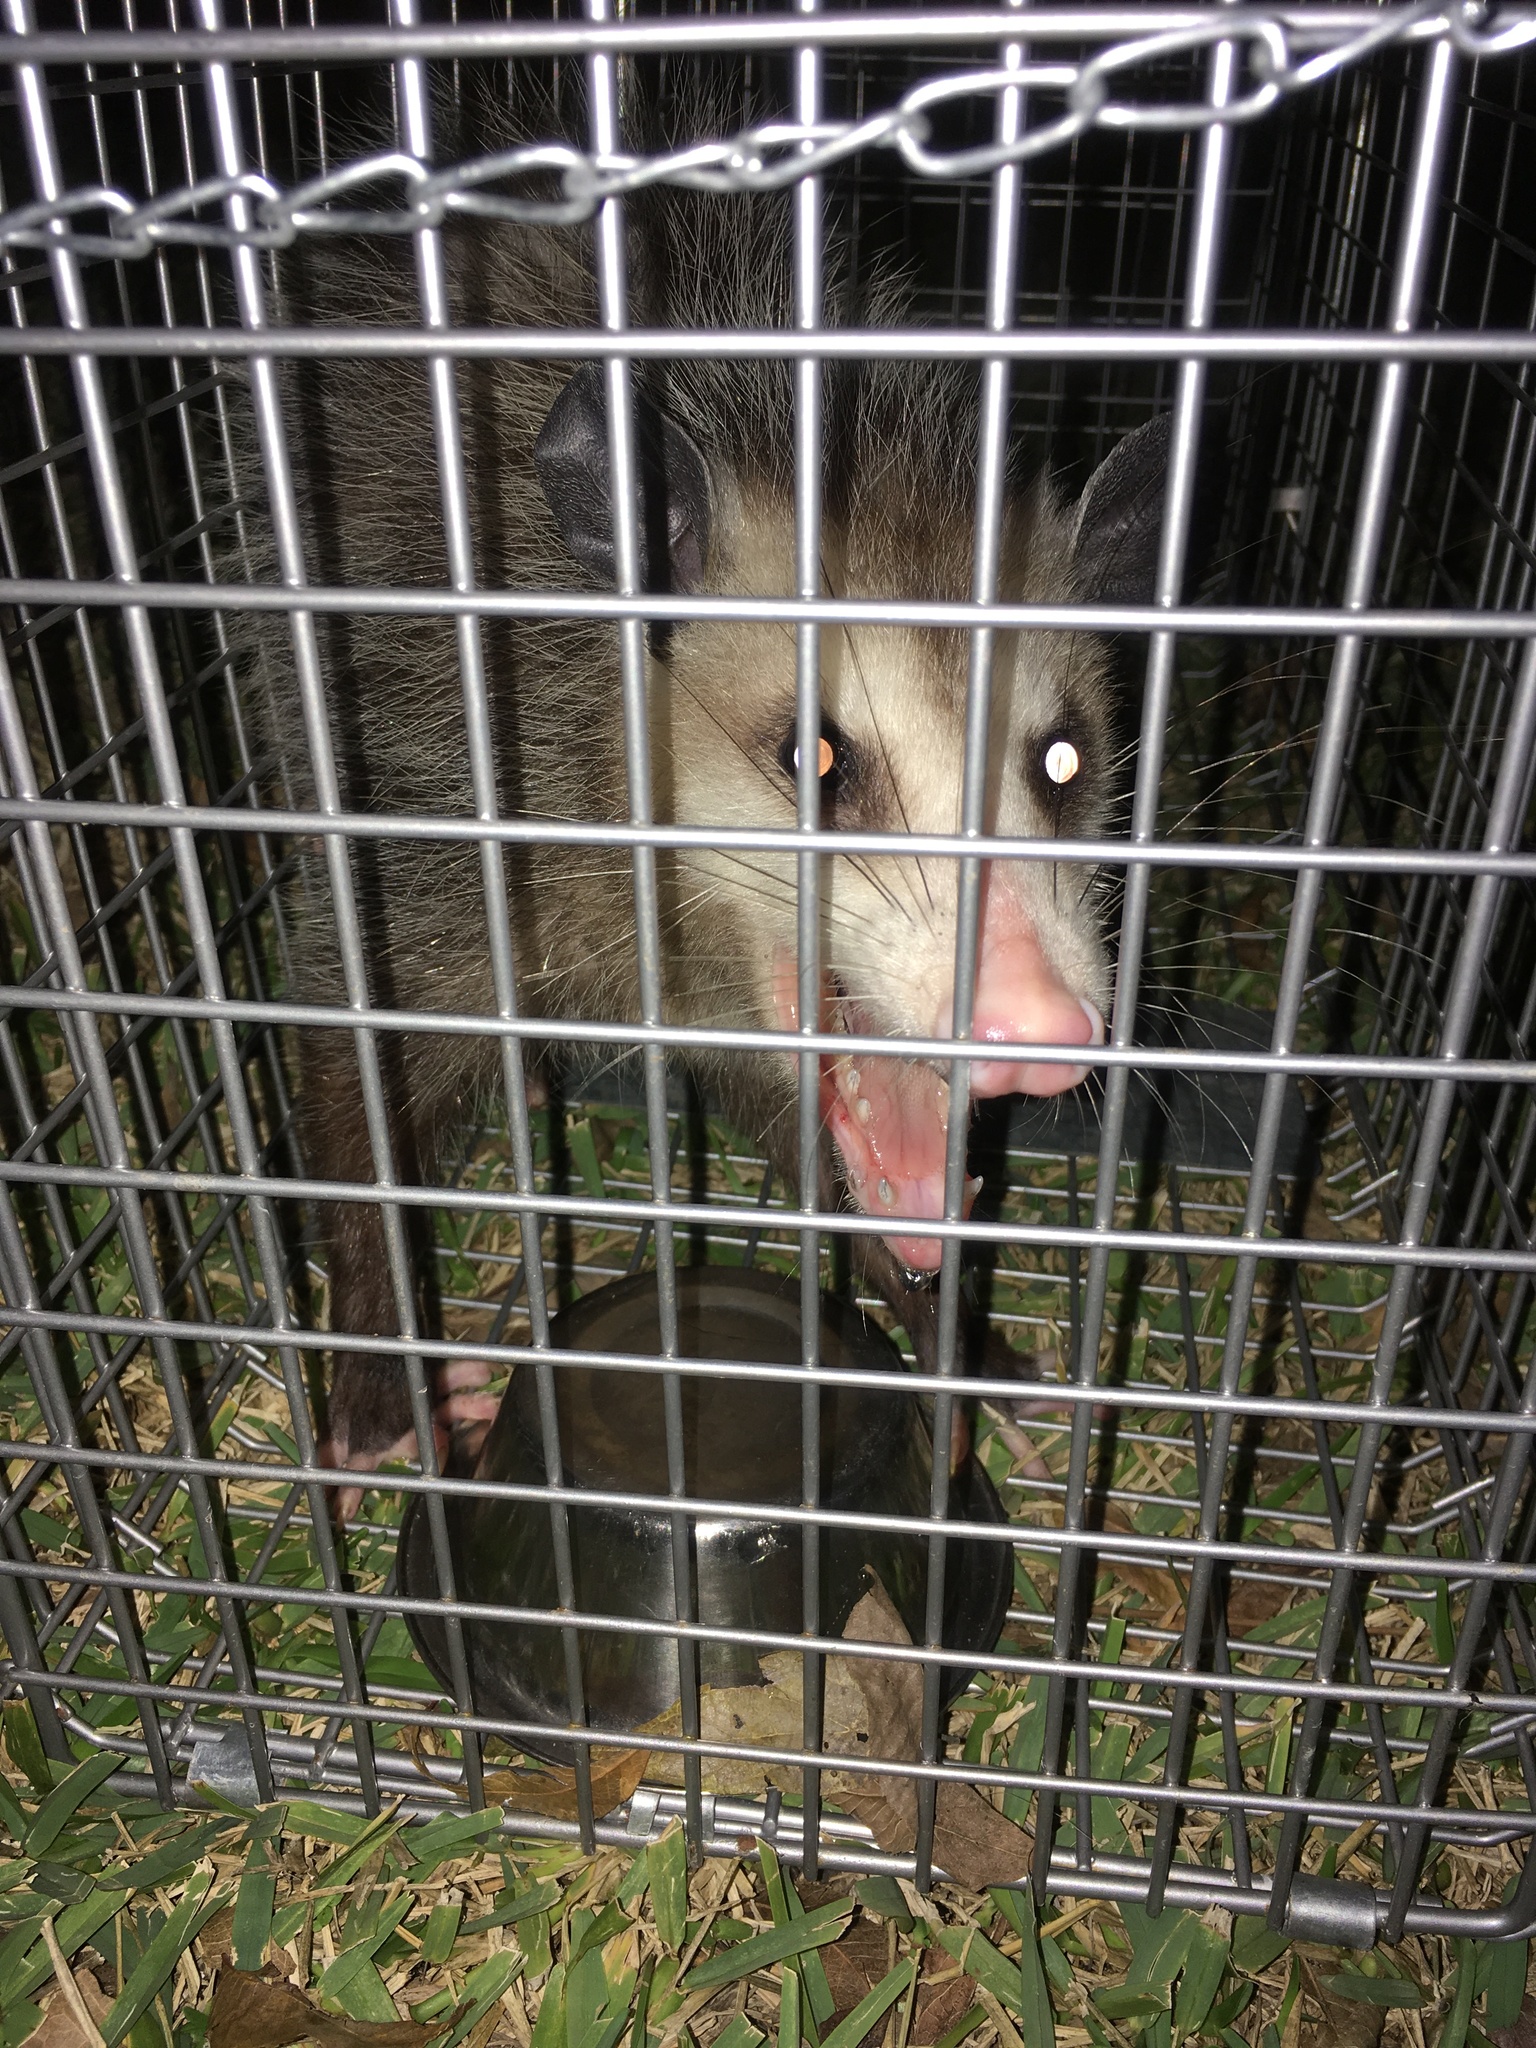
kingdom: Animalia
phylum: Chordata
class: Mammalia
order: Didelphimorphia
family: Didelphidae
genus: Didelphis
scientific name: Didelphis virginiana
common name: Virginia opossum
